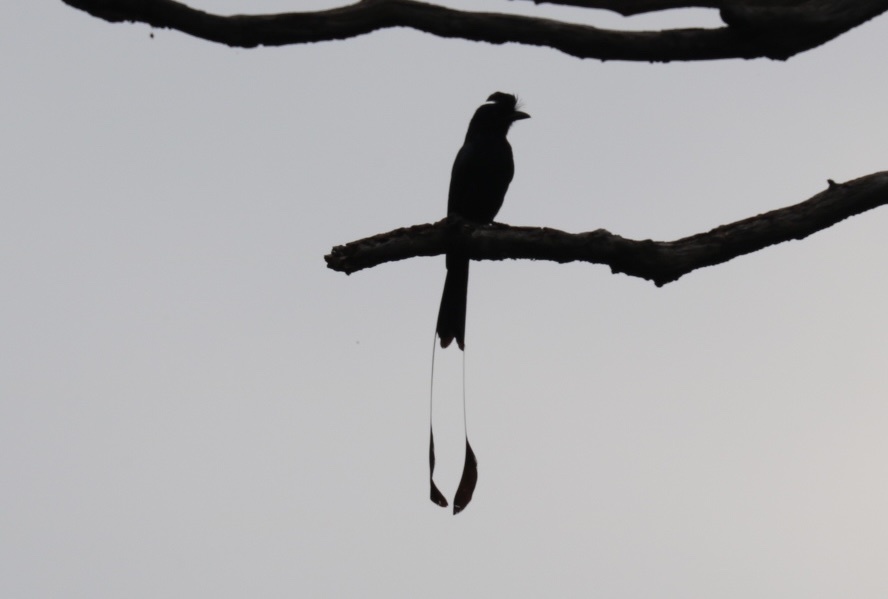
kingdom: Animalia
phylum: Chordata
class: Aves
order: Passeriformes
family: Dicruridae
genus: Dicrurus
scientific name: Dicrurus paradiseus
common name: Greater racket-tailed drongo
